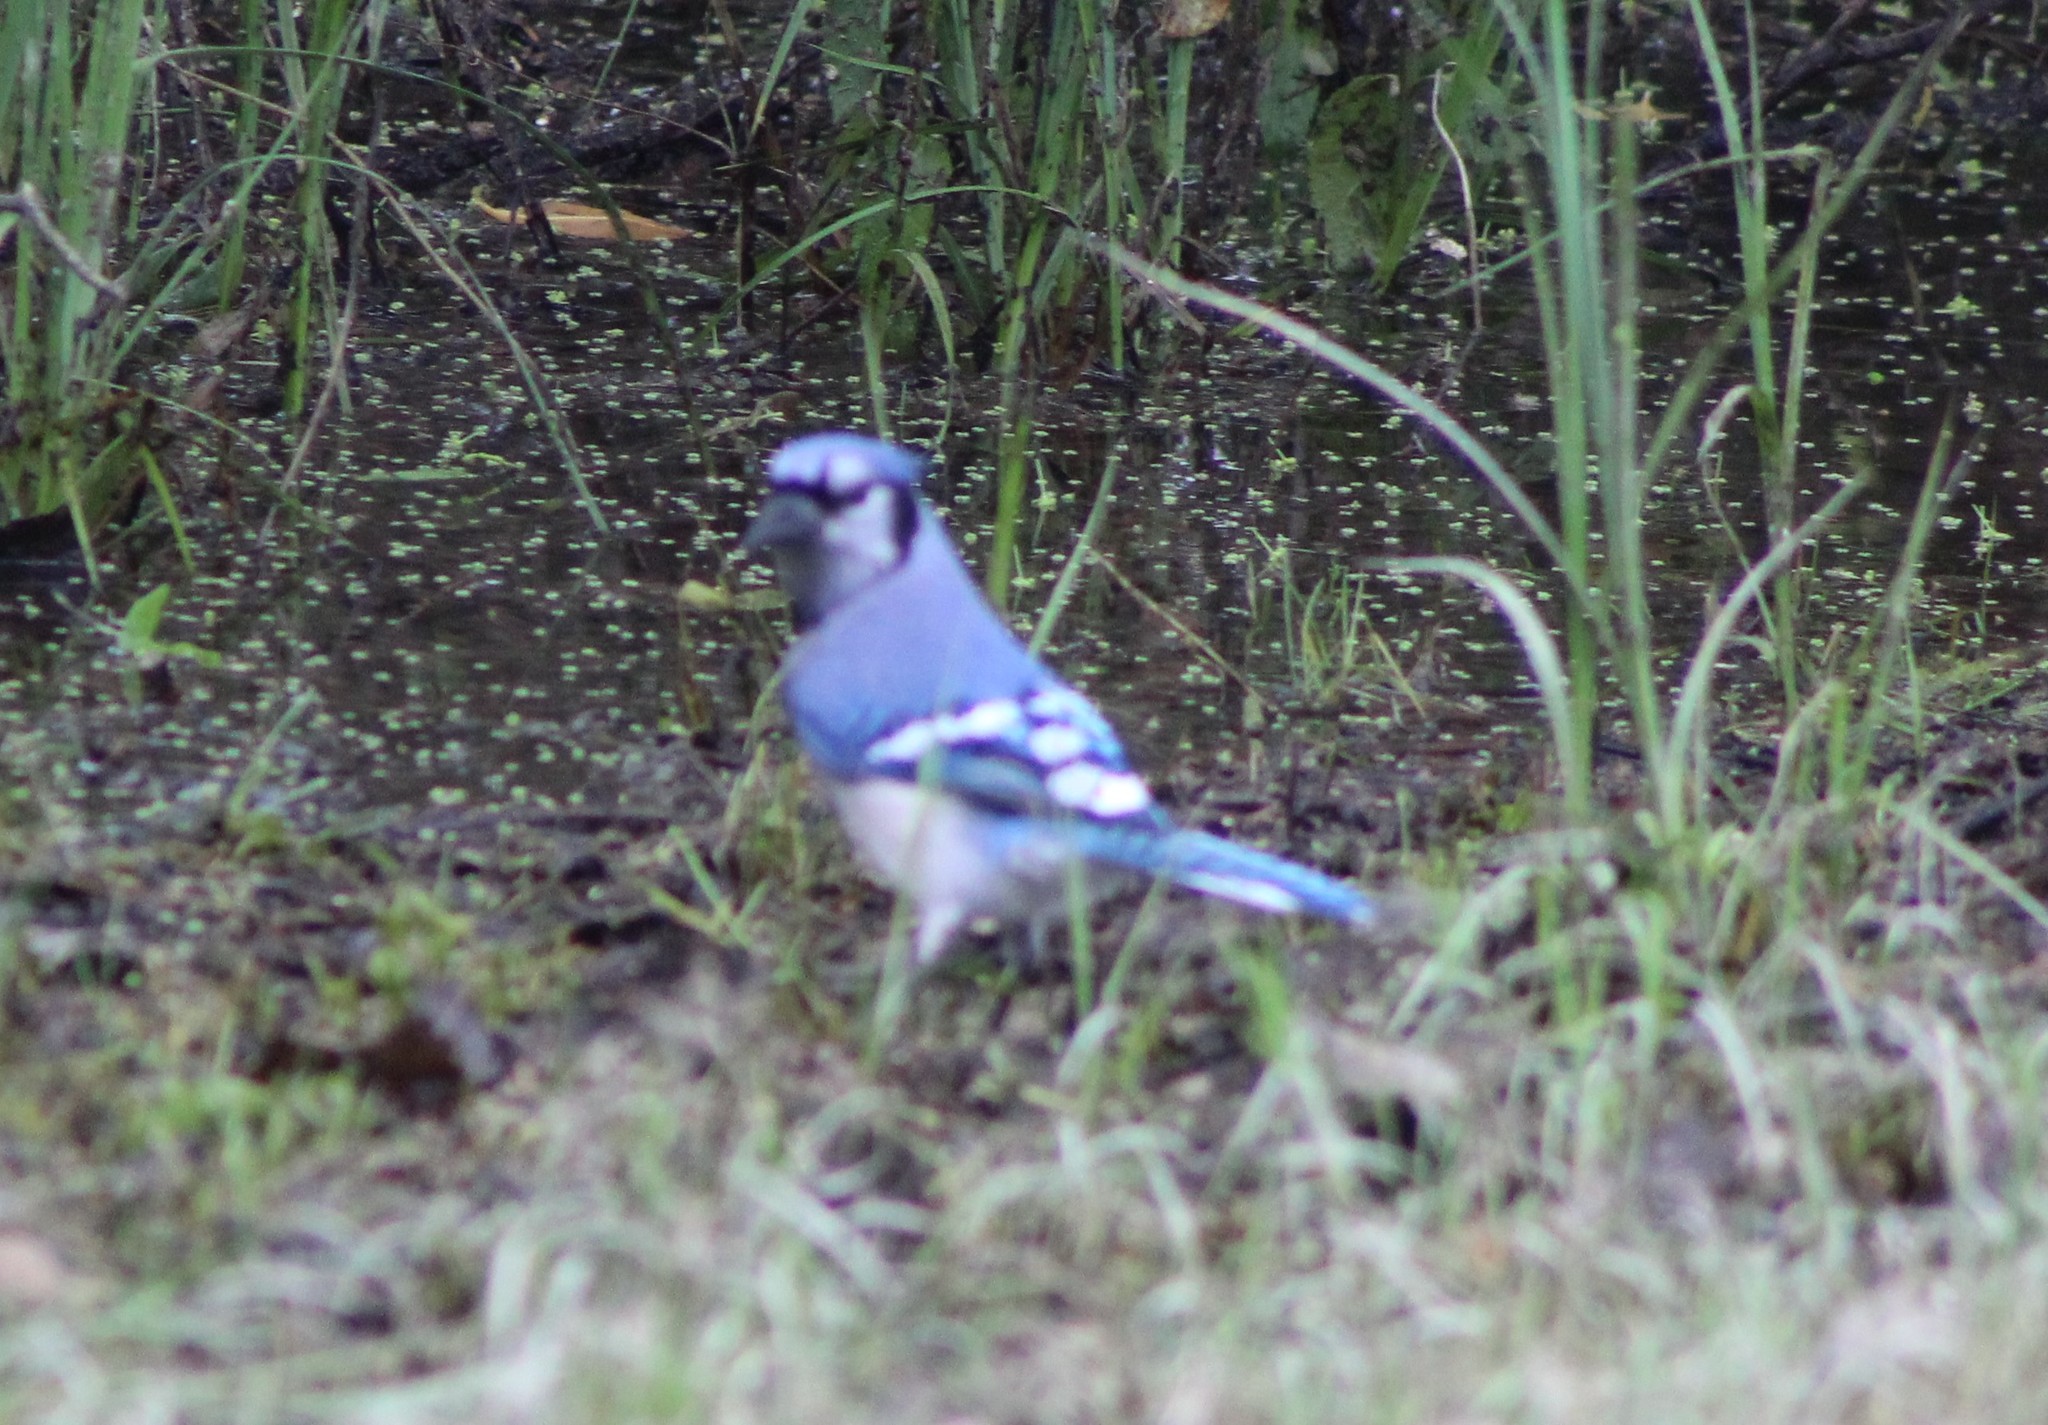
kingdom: Animalia
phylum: Chordata
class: Aves
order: Passeriformes
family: Corvidae
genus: Cyanocitta
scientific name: Cyanocitta cristata
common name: Blue jay
